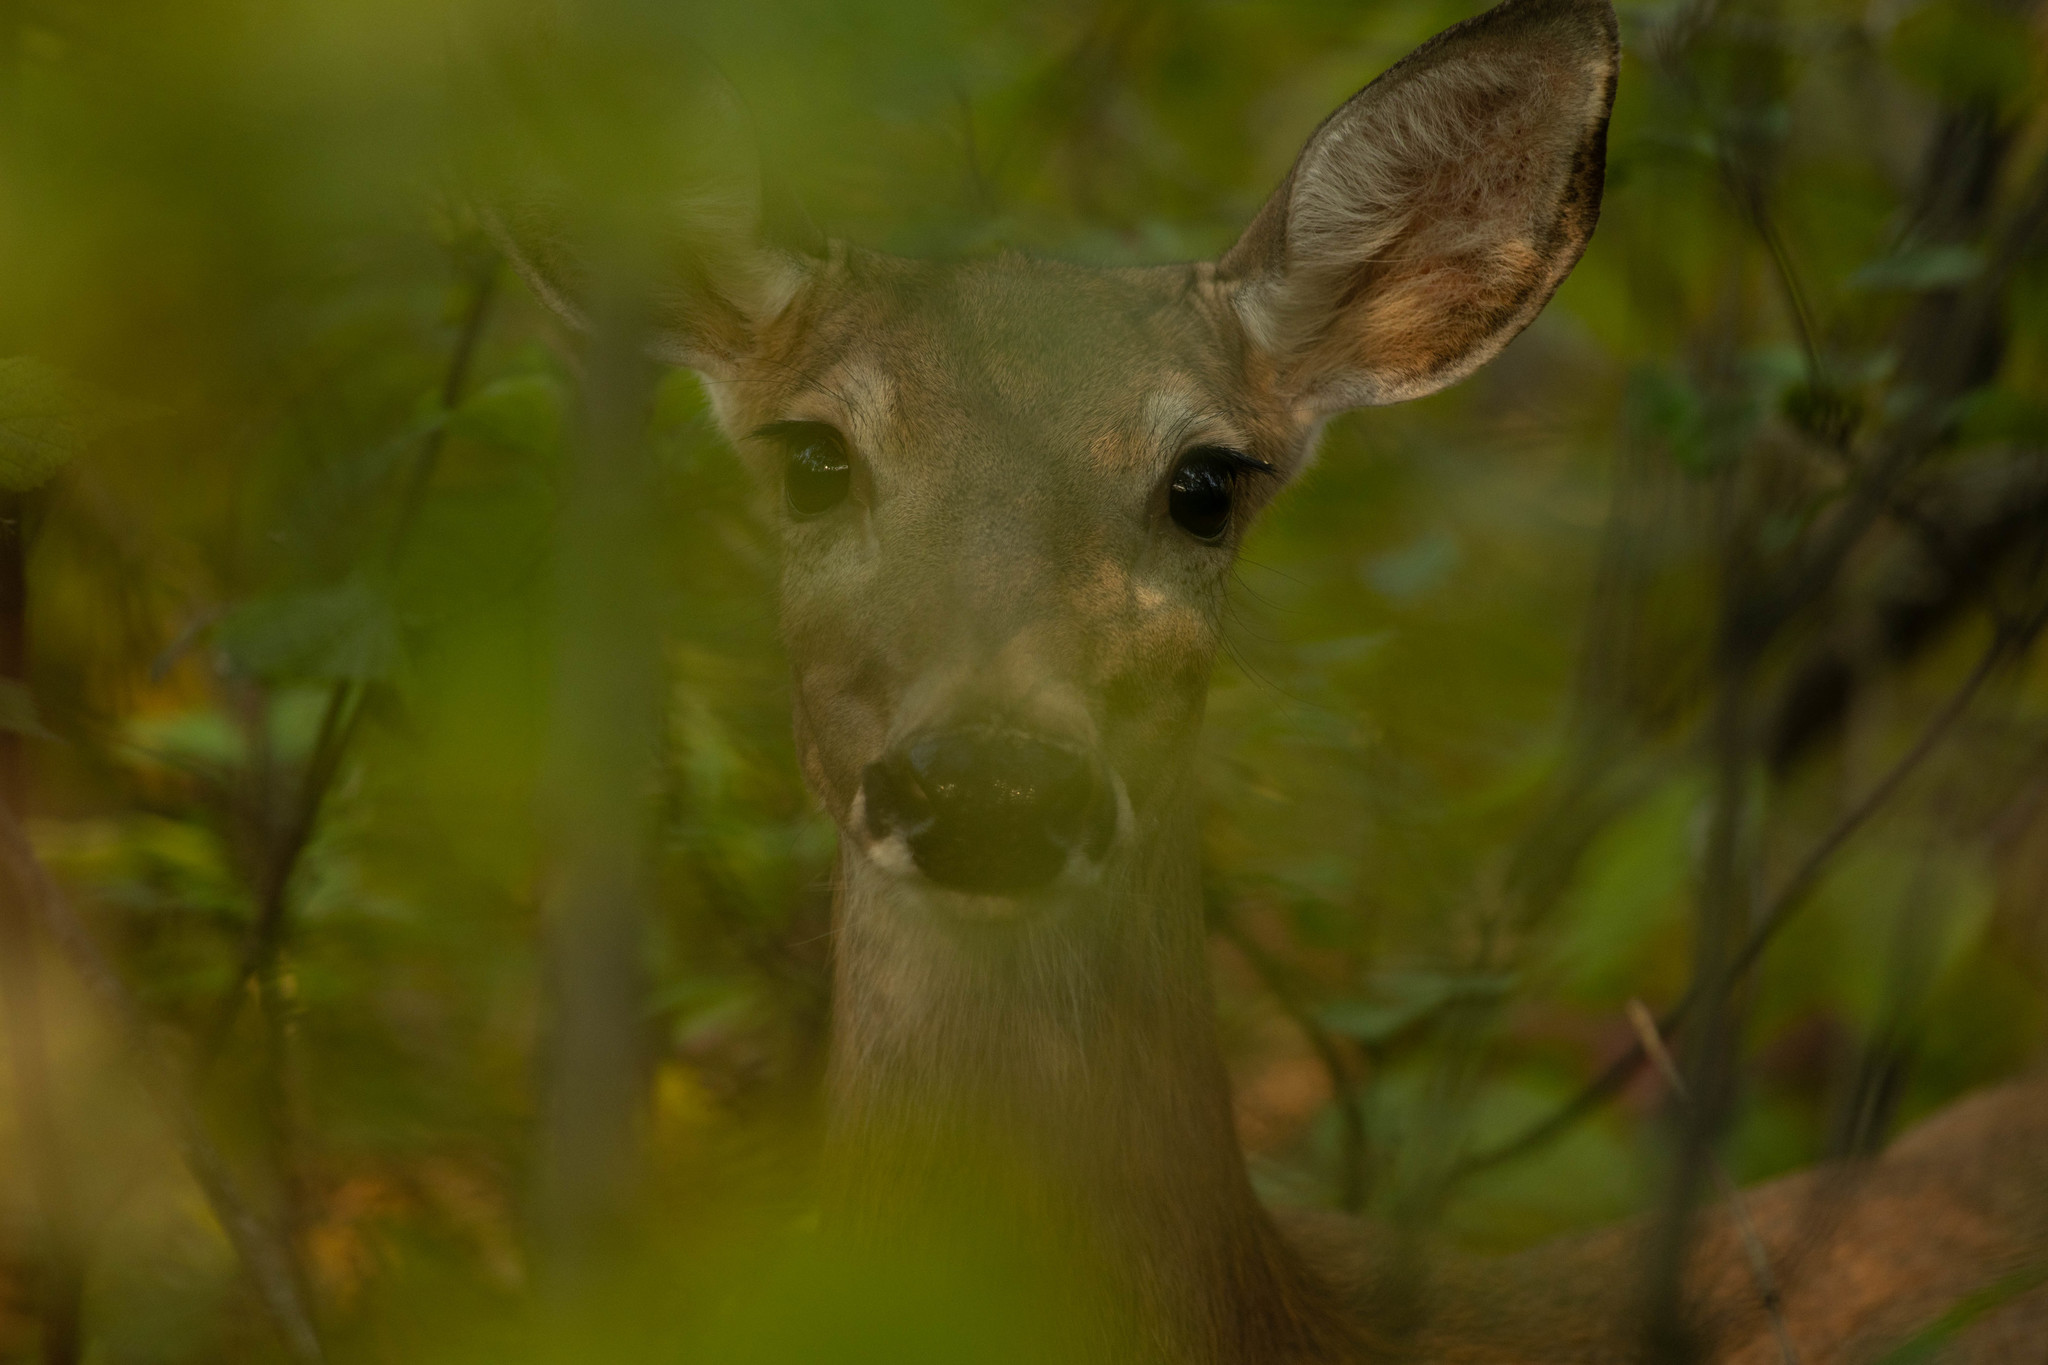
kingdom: Animalia
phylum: Chordata
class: Mammalia
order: Artiodactyla
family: Cervidae
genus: Odocoileus
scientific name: Odocoileus virginianus
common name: White-tailed deer
